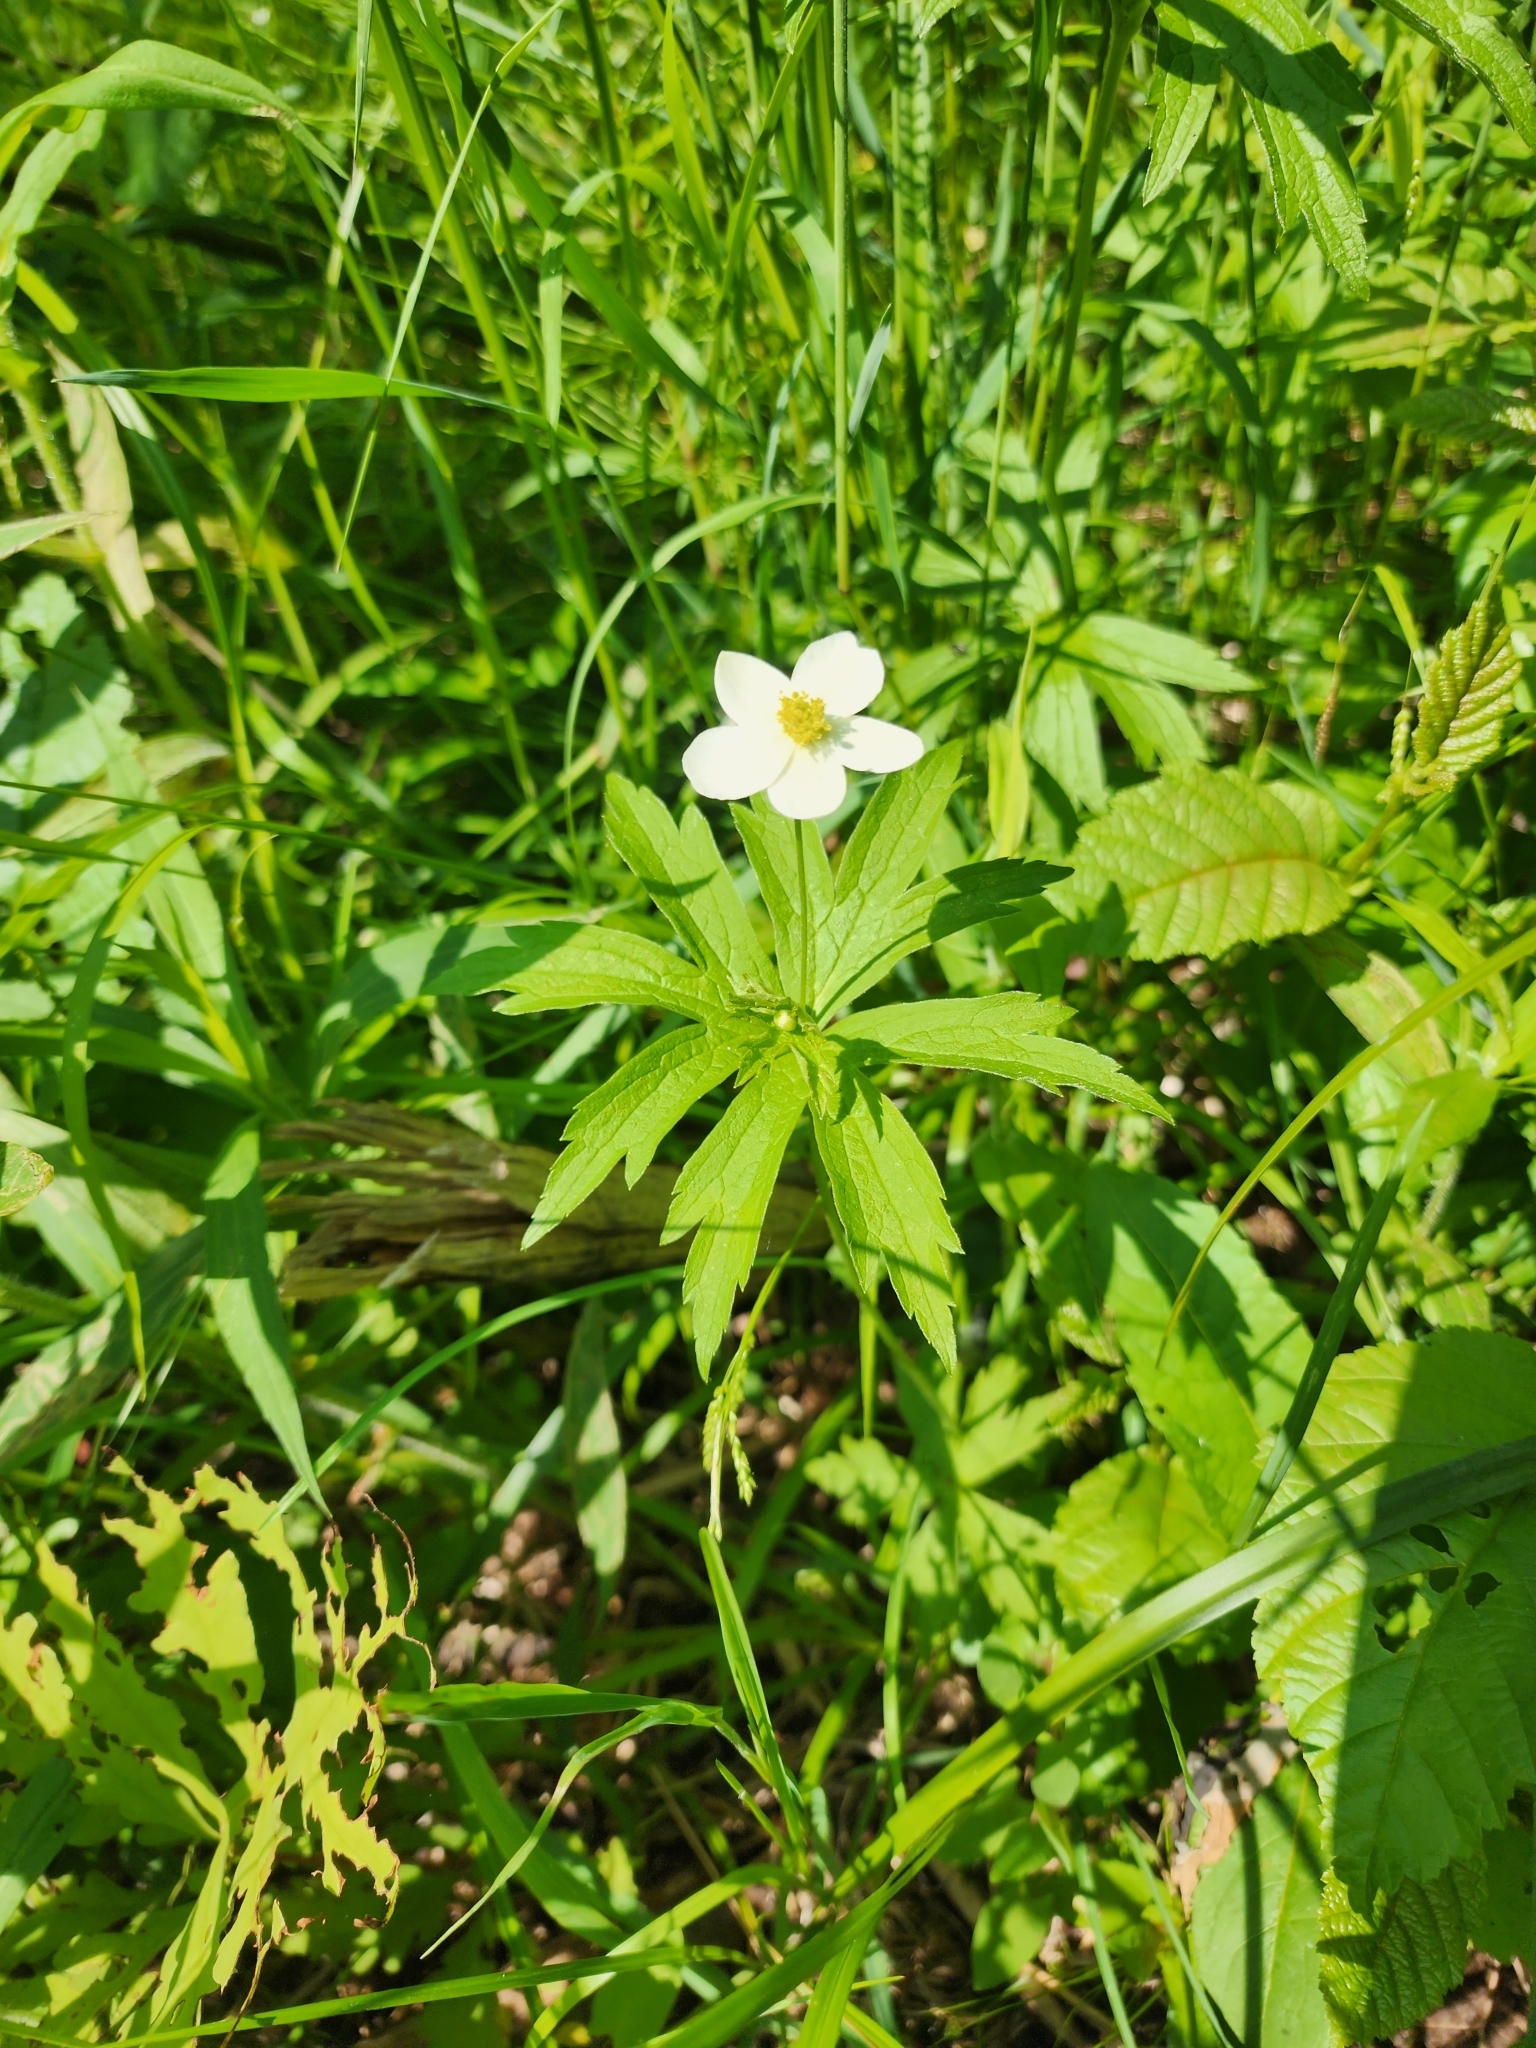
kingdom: Plantae
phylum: Tracheophyta
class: Magnoliopsida
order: Ranunculales
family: Ranunculaceae
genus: Anemonastrum
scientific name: Anemonastrum canadense
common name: Canada anemone
